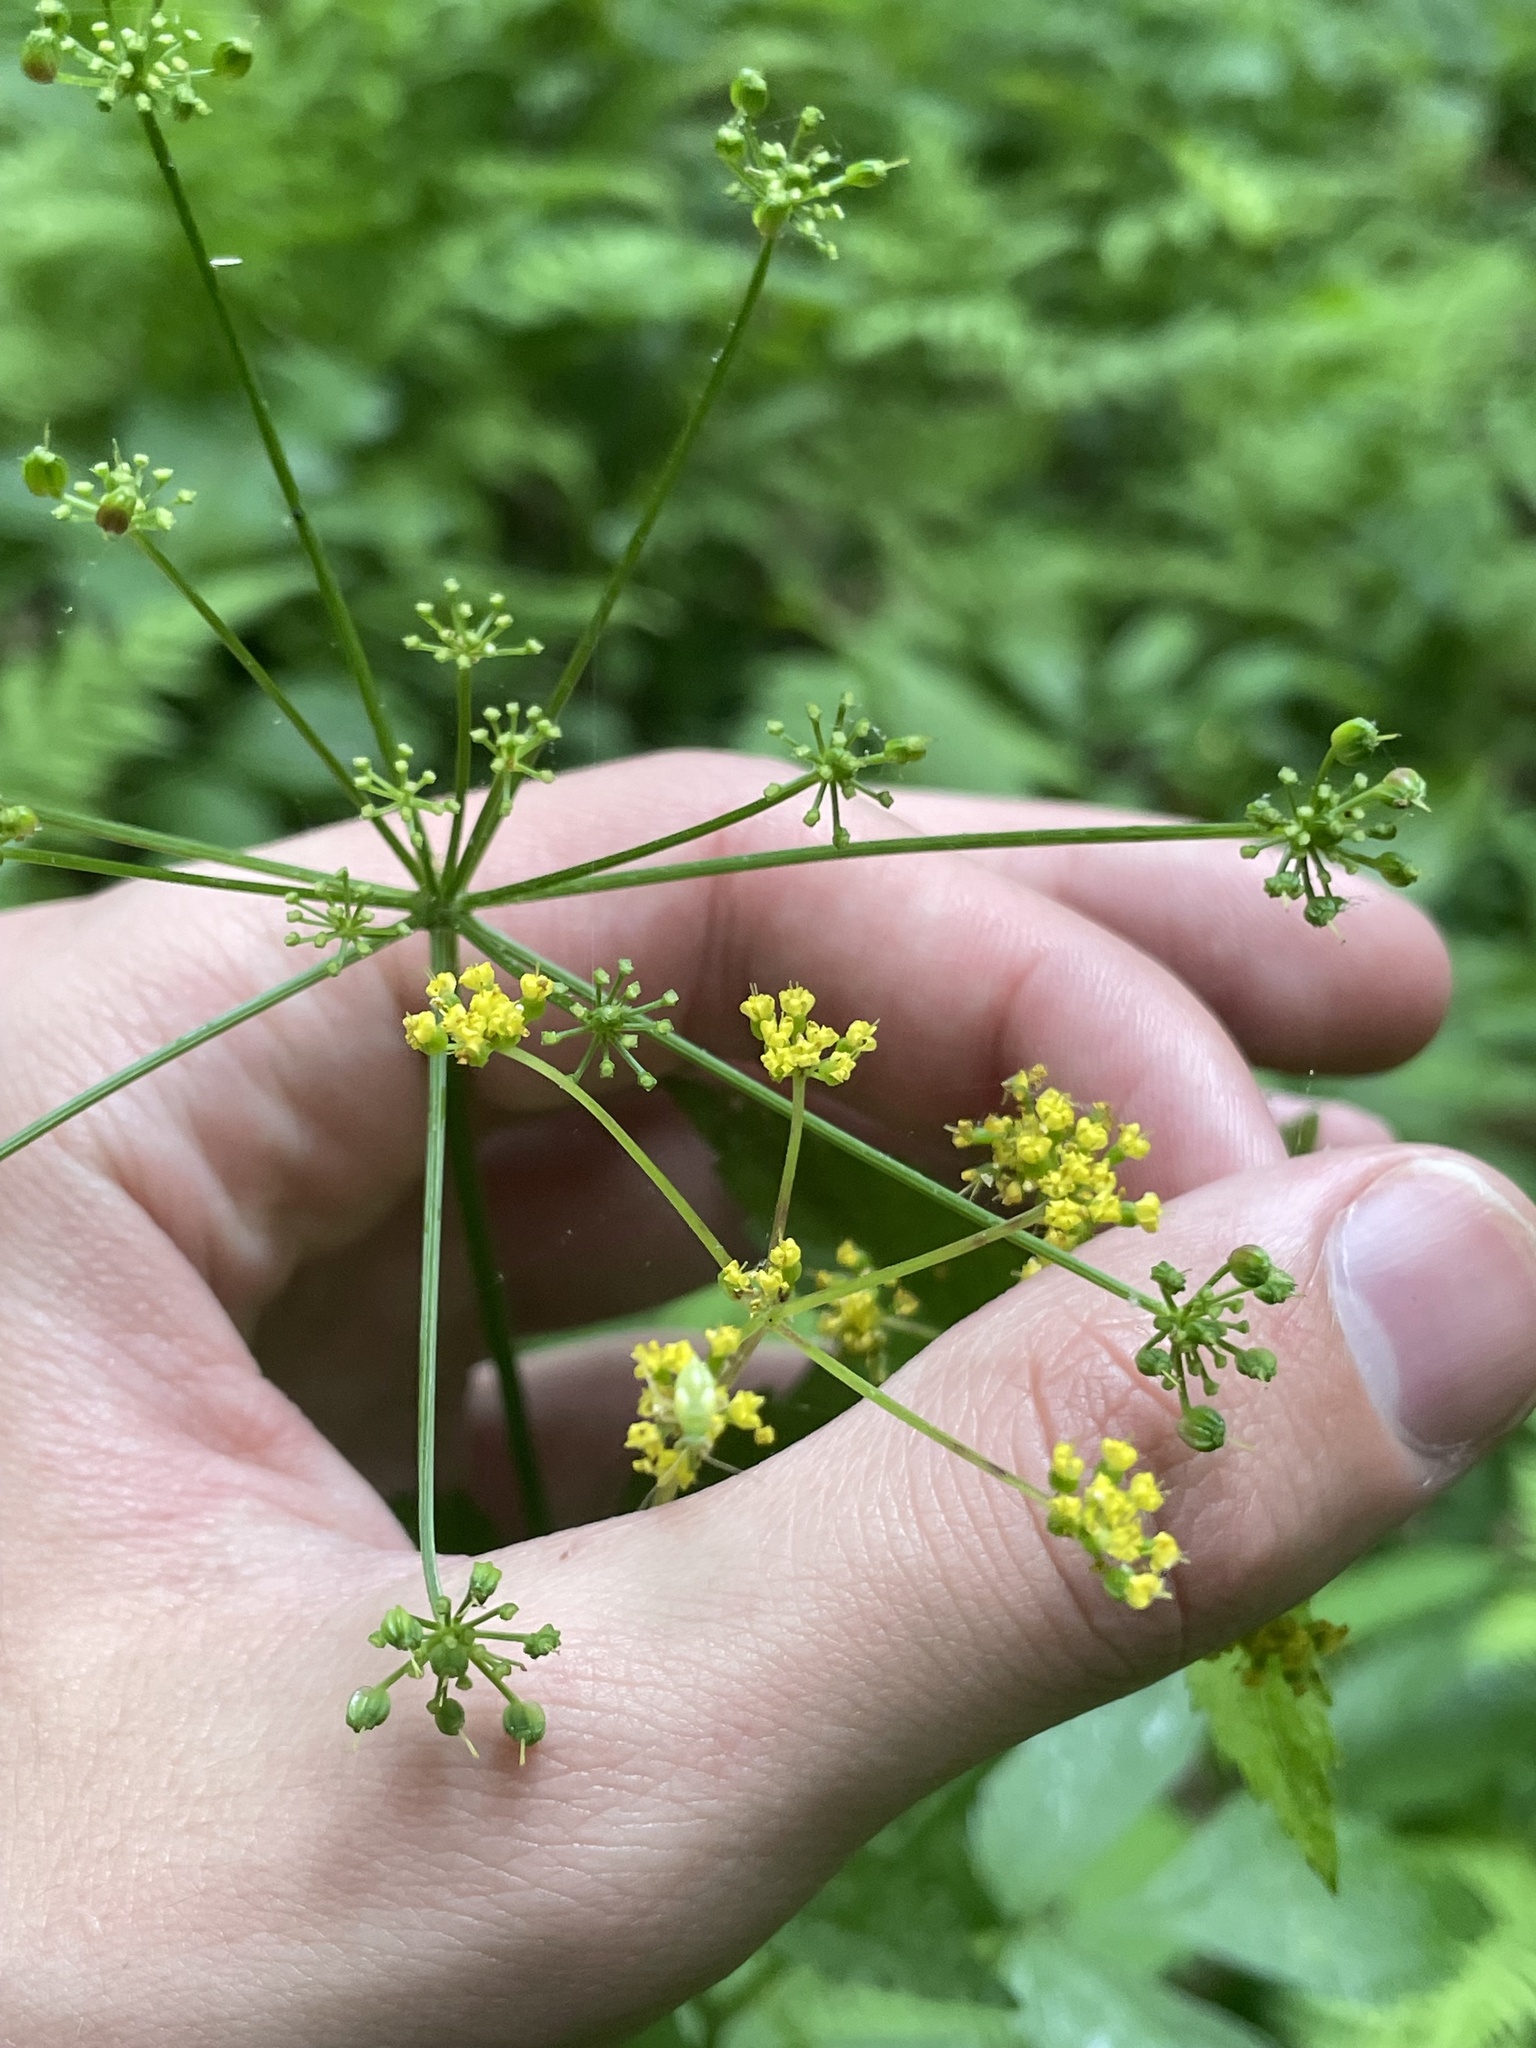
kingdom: Plantae
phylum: Tracheophyta
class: Magnoliopsida
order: Apiales
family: Apiaceae
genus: Thaspium
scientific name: Thaspium barbinode
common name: Bearded meadow-parsnip
